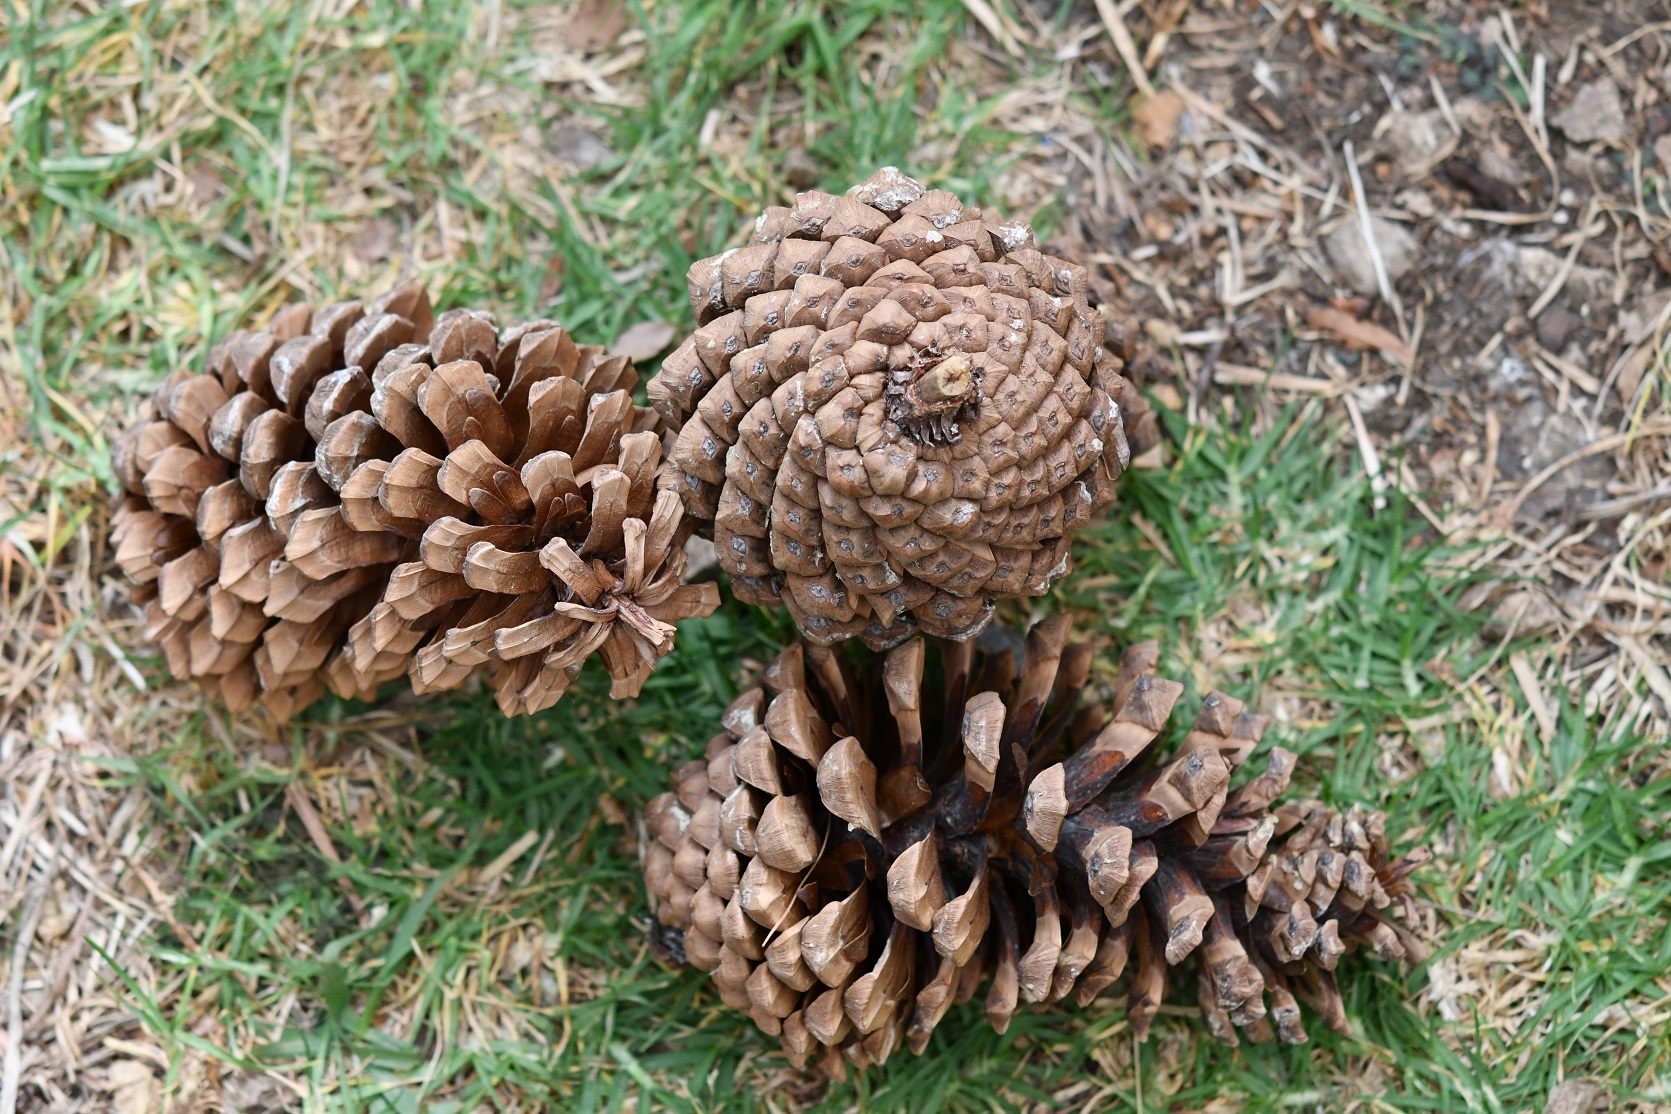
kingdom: Plantae
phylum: Tracheophyta
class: Pinopsida
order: Pinales
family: Pinaceae
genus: Pinus
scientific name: Pinus devoniana
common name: Michoacan pine
